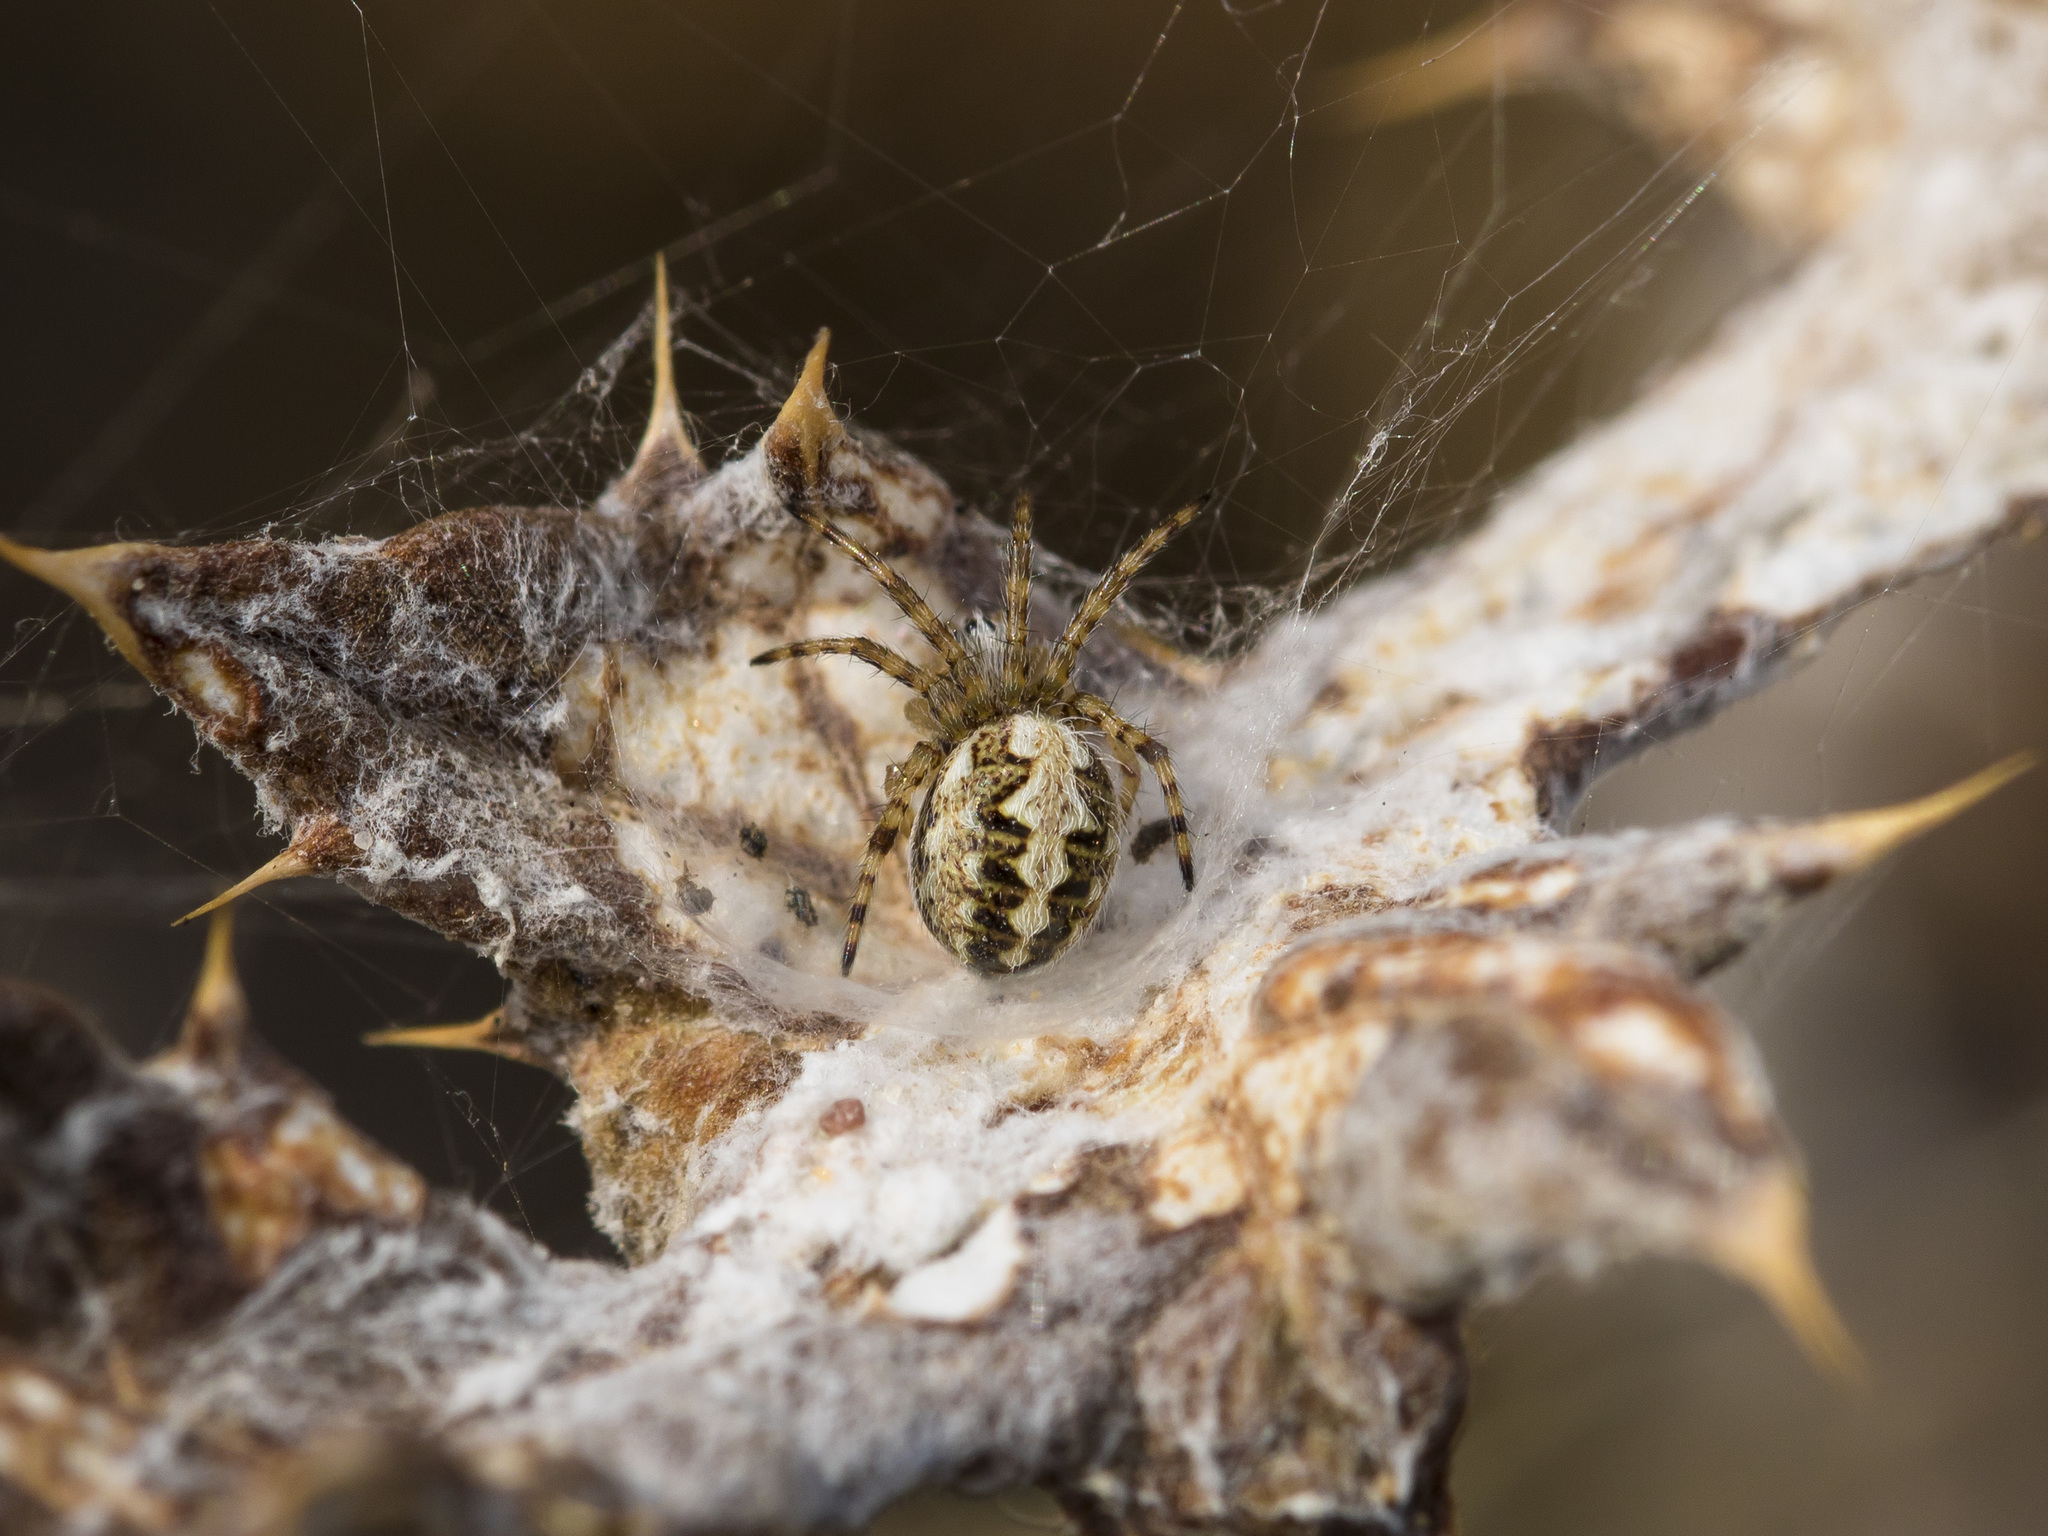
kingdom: Animalia
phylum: Arthropoda
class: Arachnida
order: Araneae
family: Araneidae
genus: Aculepeira
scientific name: Aculepeira armida
